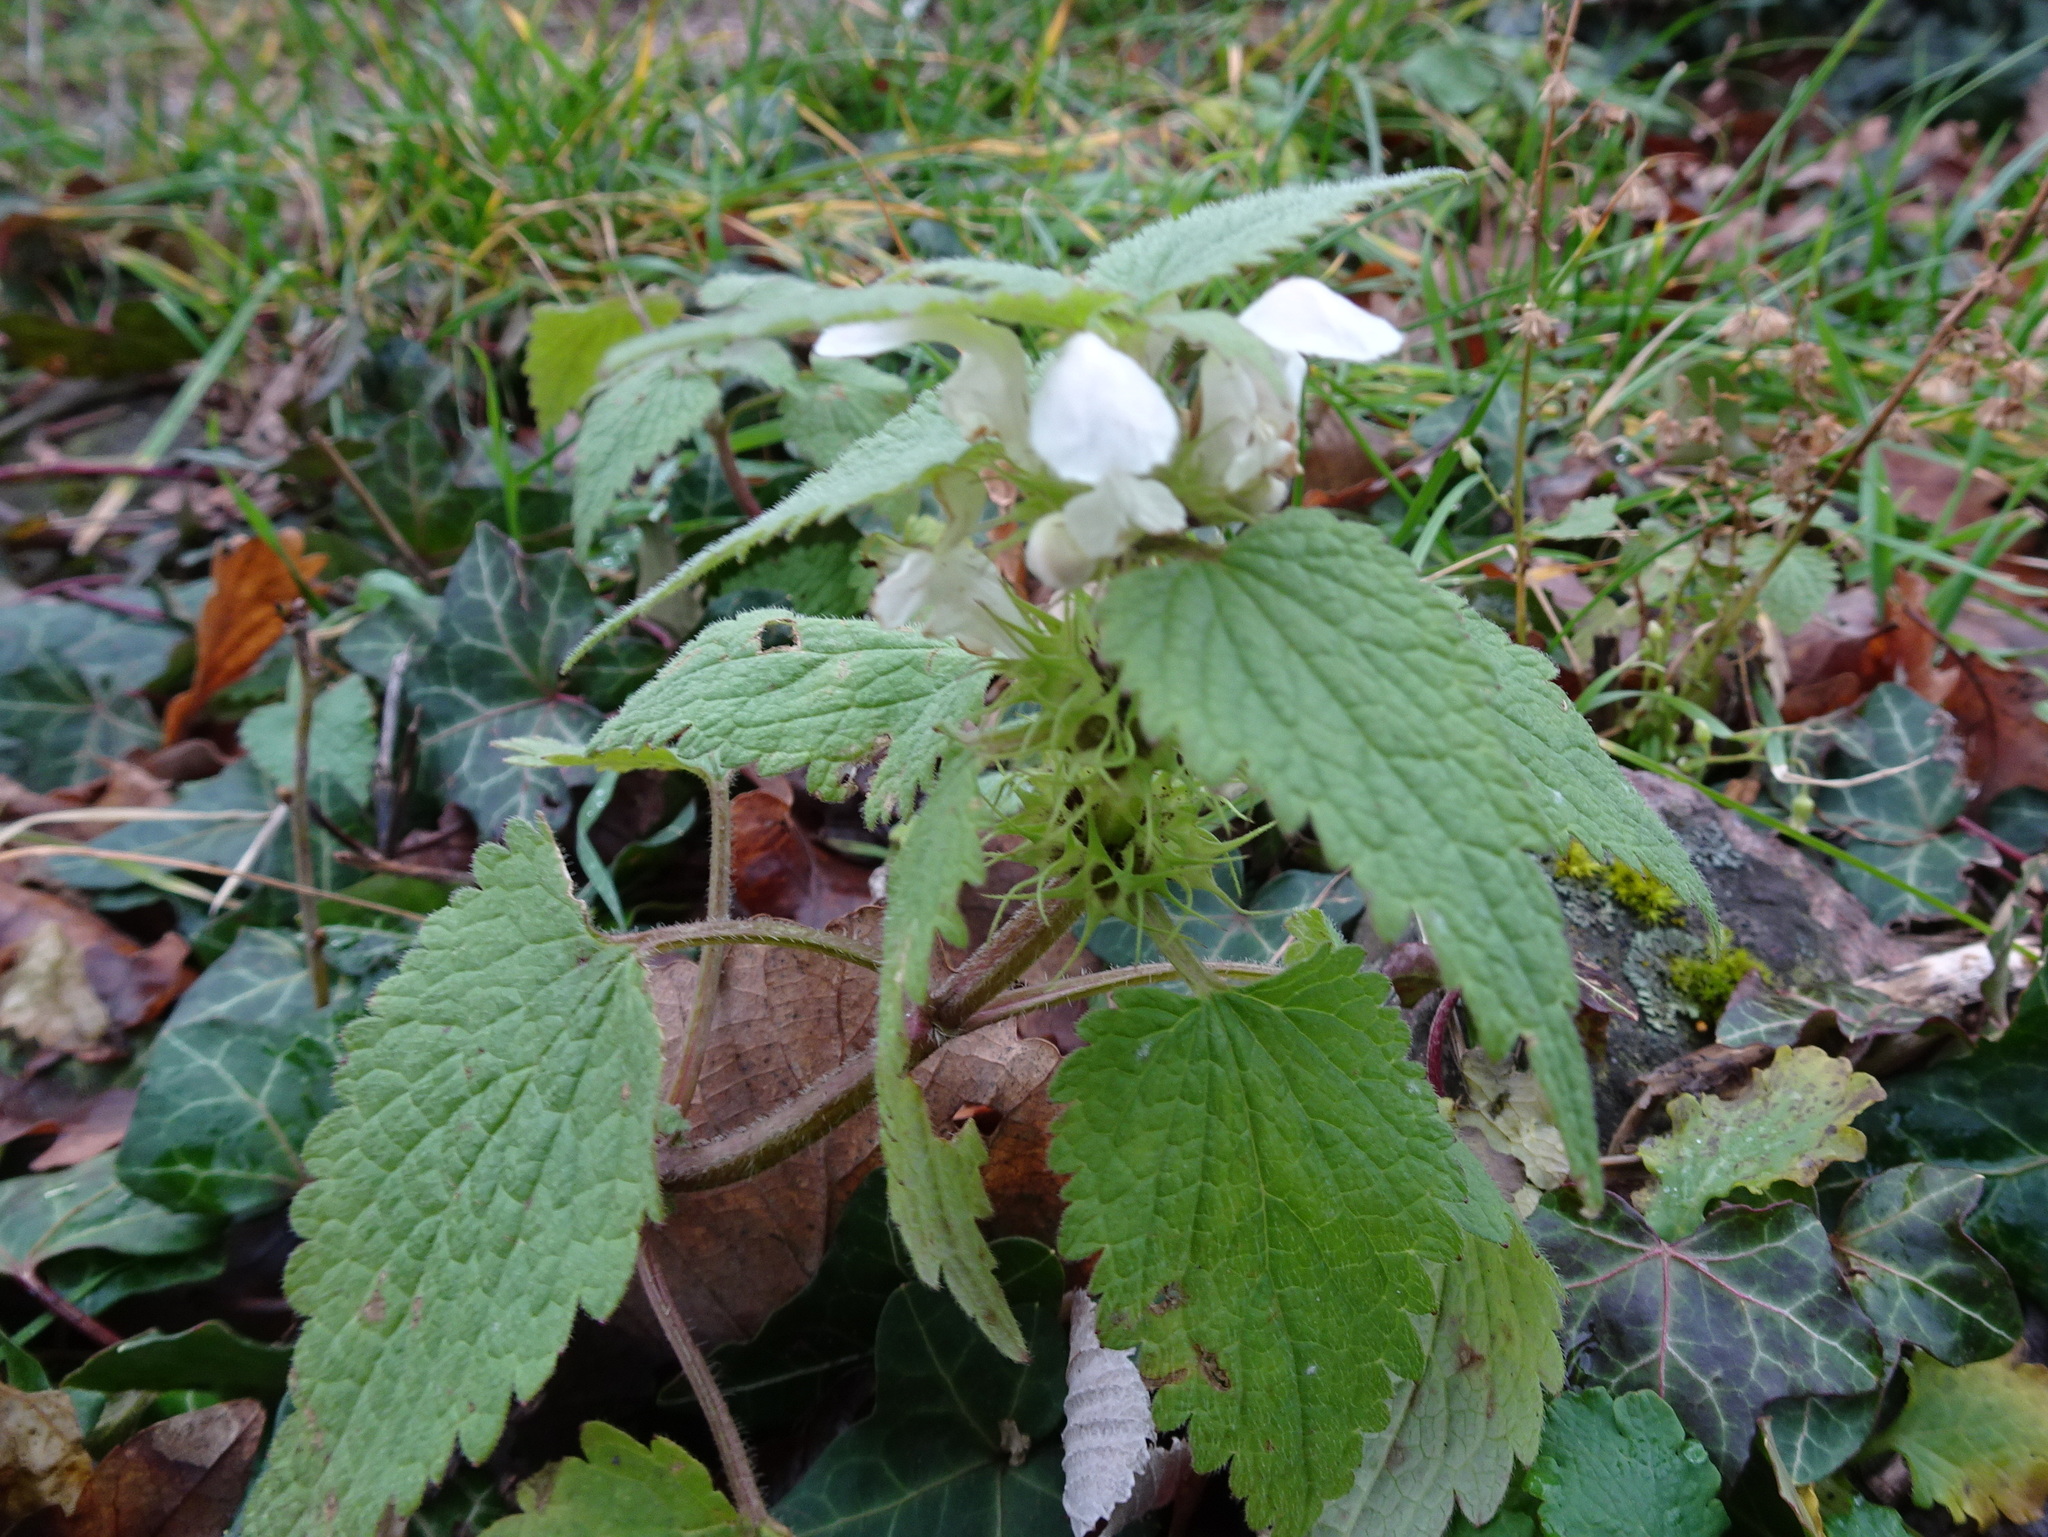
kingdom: Plantae
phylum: Tracheophyta
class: Magnoliopsida
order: Lamiales
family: Lamiaceae
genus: Lamium
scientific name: Lamium album
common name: White dead-nettle
